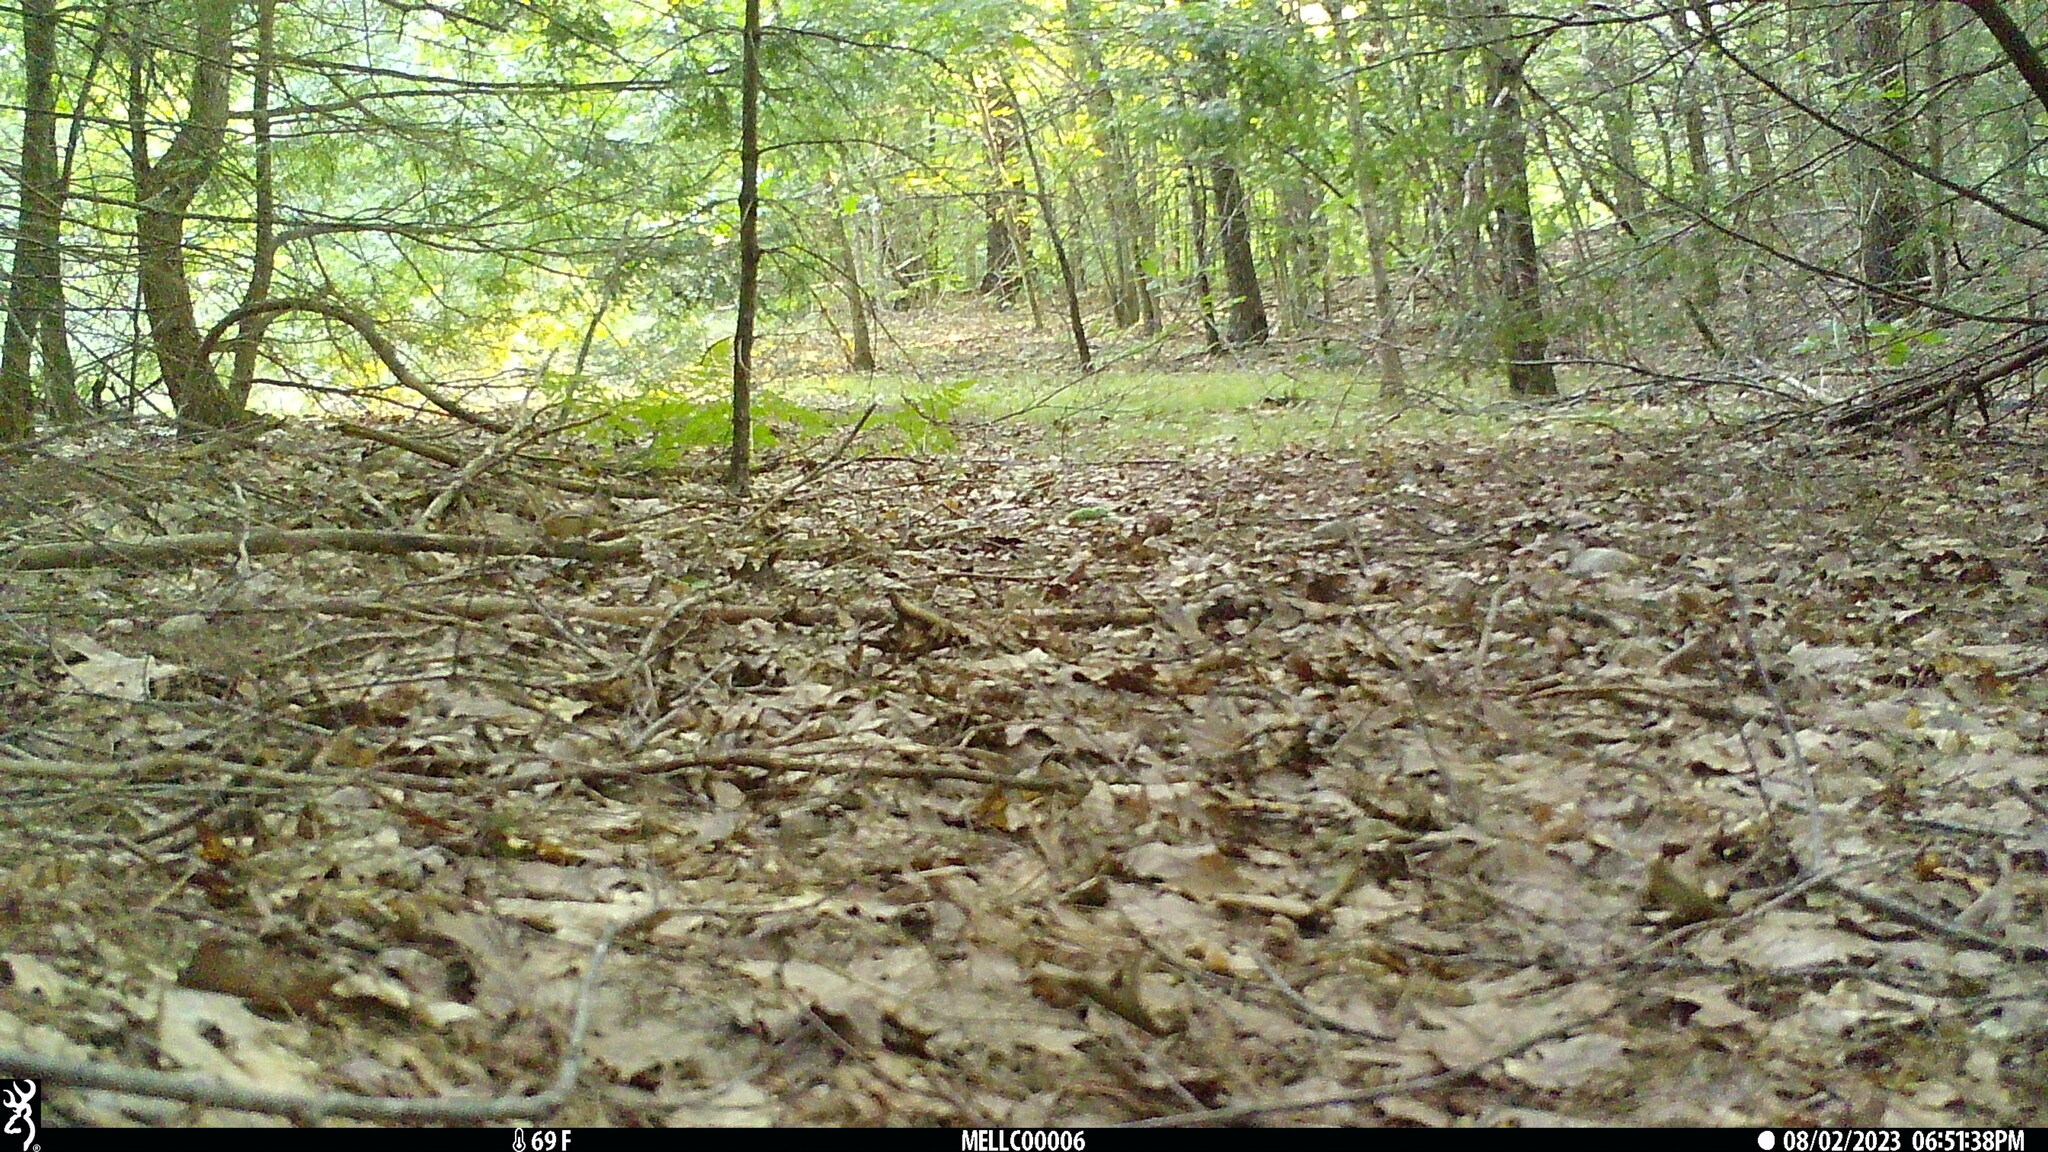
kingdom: Animalia
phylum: Chordata
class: Mammalia
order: Rodentia
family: Sciuridae
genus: Tamias
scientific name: Tamias striatus
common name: Eastern chipmunk
